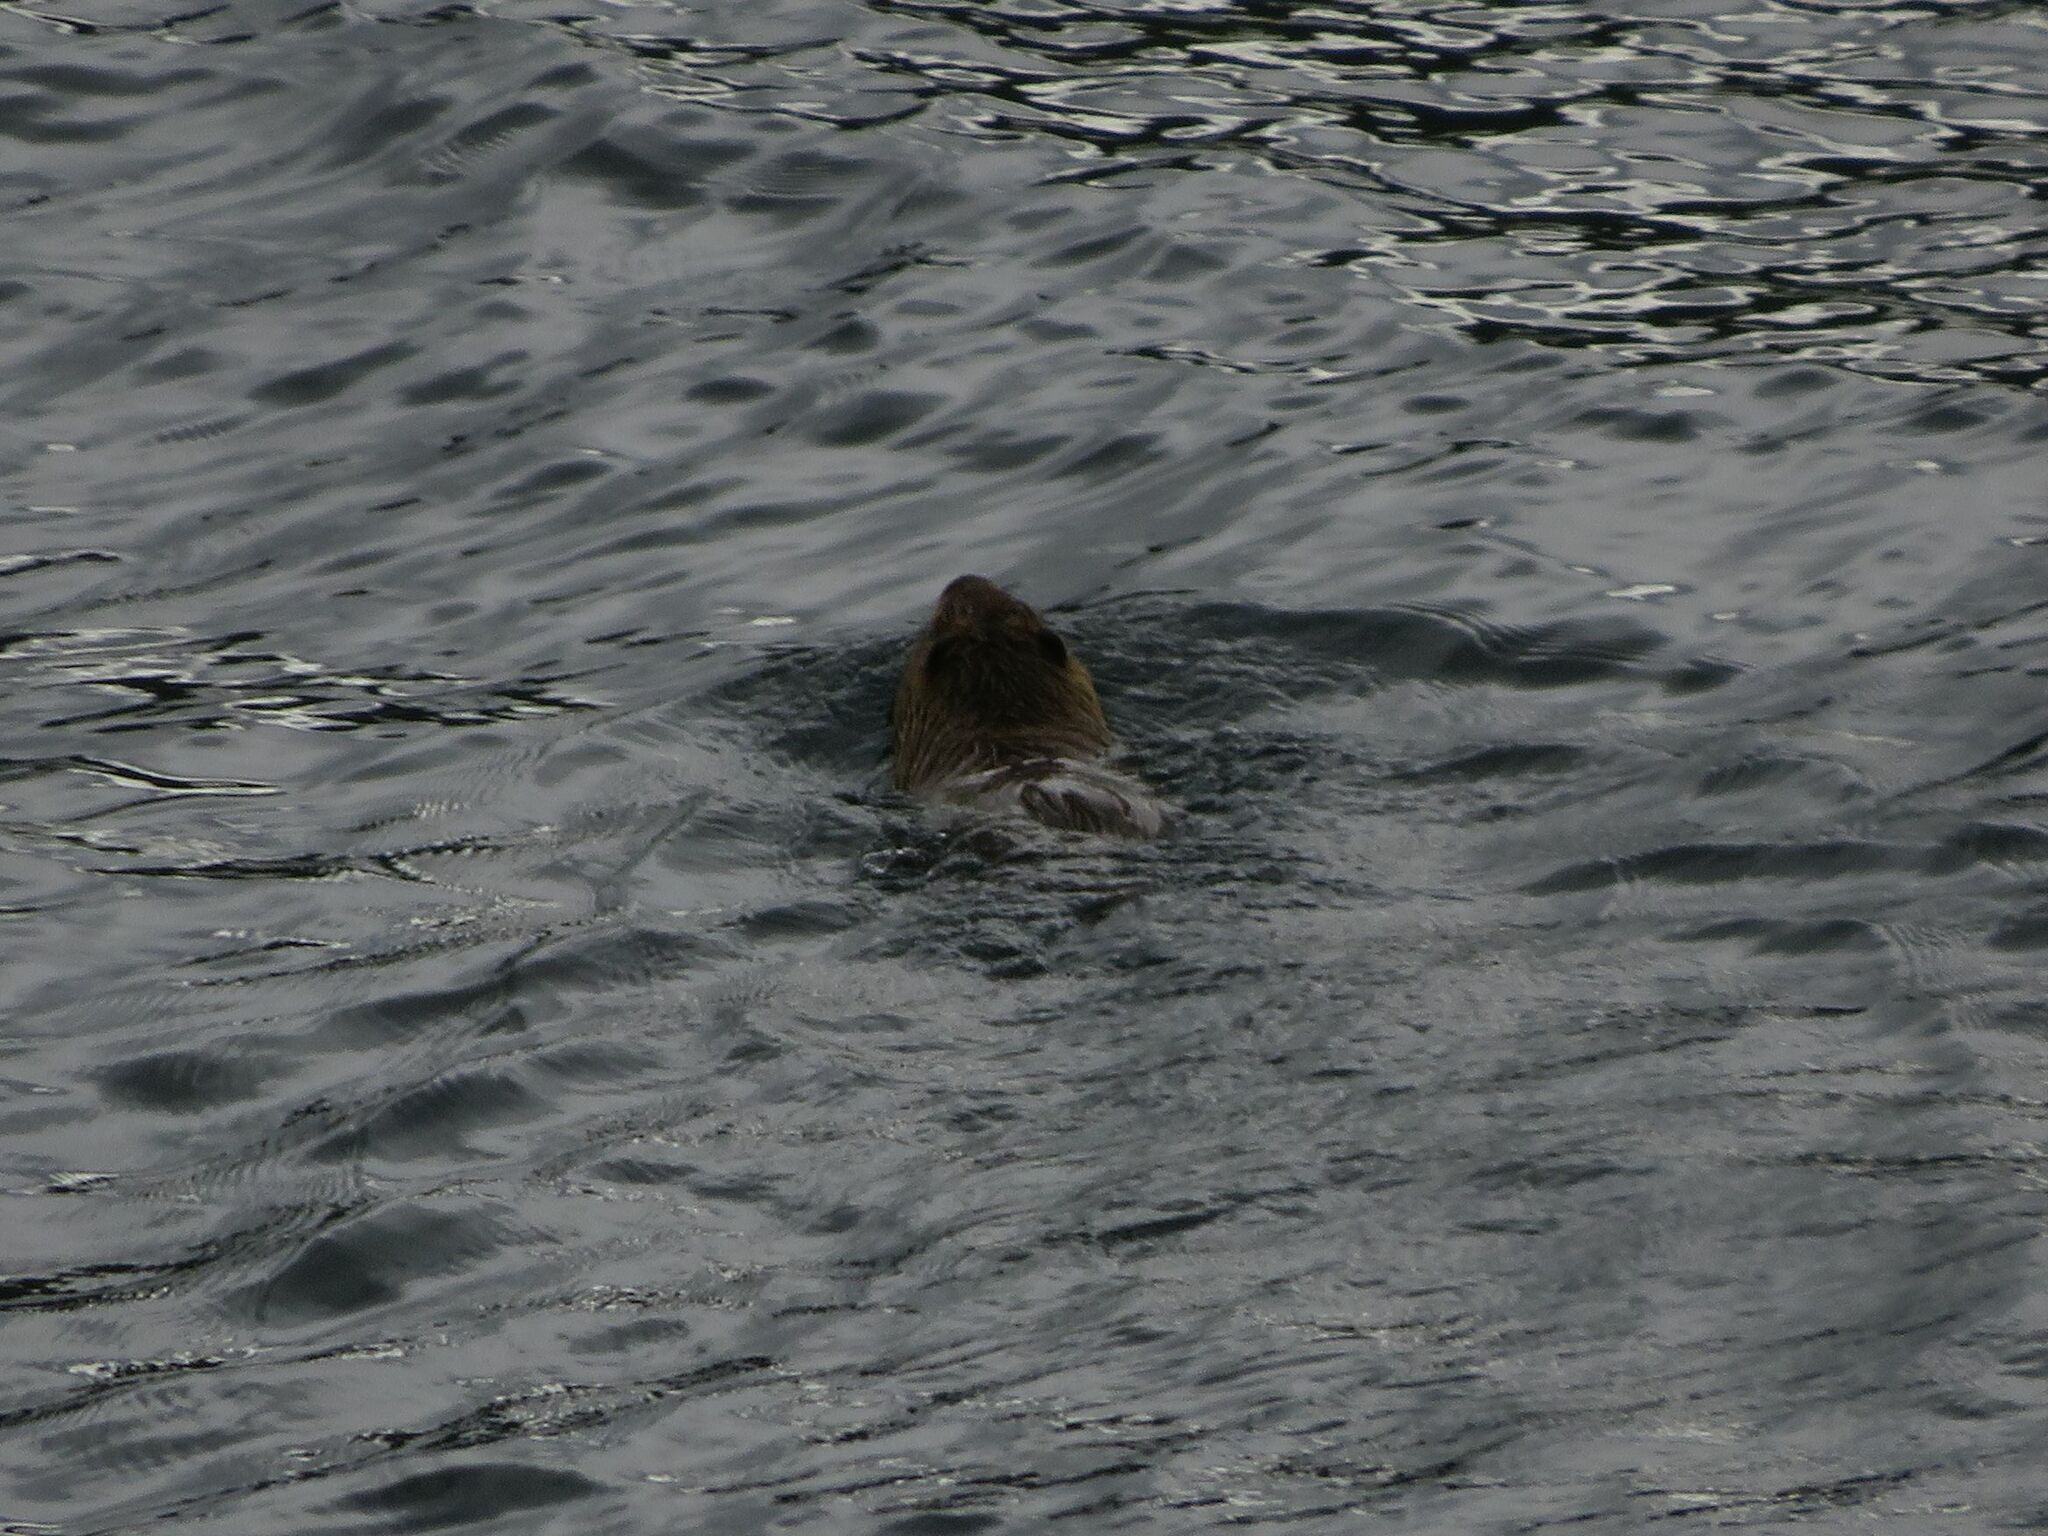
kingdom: Animalia
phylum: Chordata
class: Mammalia
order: Rodentia
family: Myocastoridae
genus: Myocastor
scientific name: Myocastor coypus
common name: Coypu
